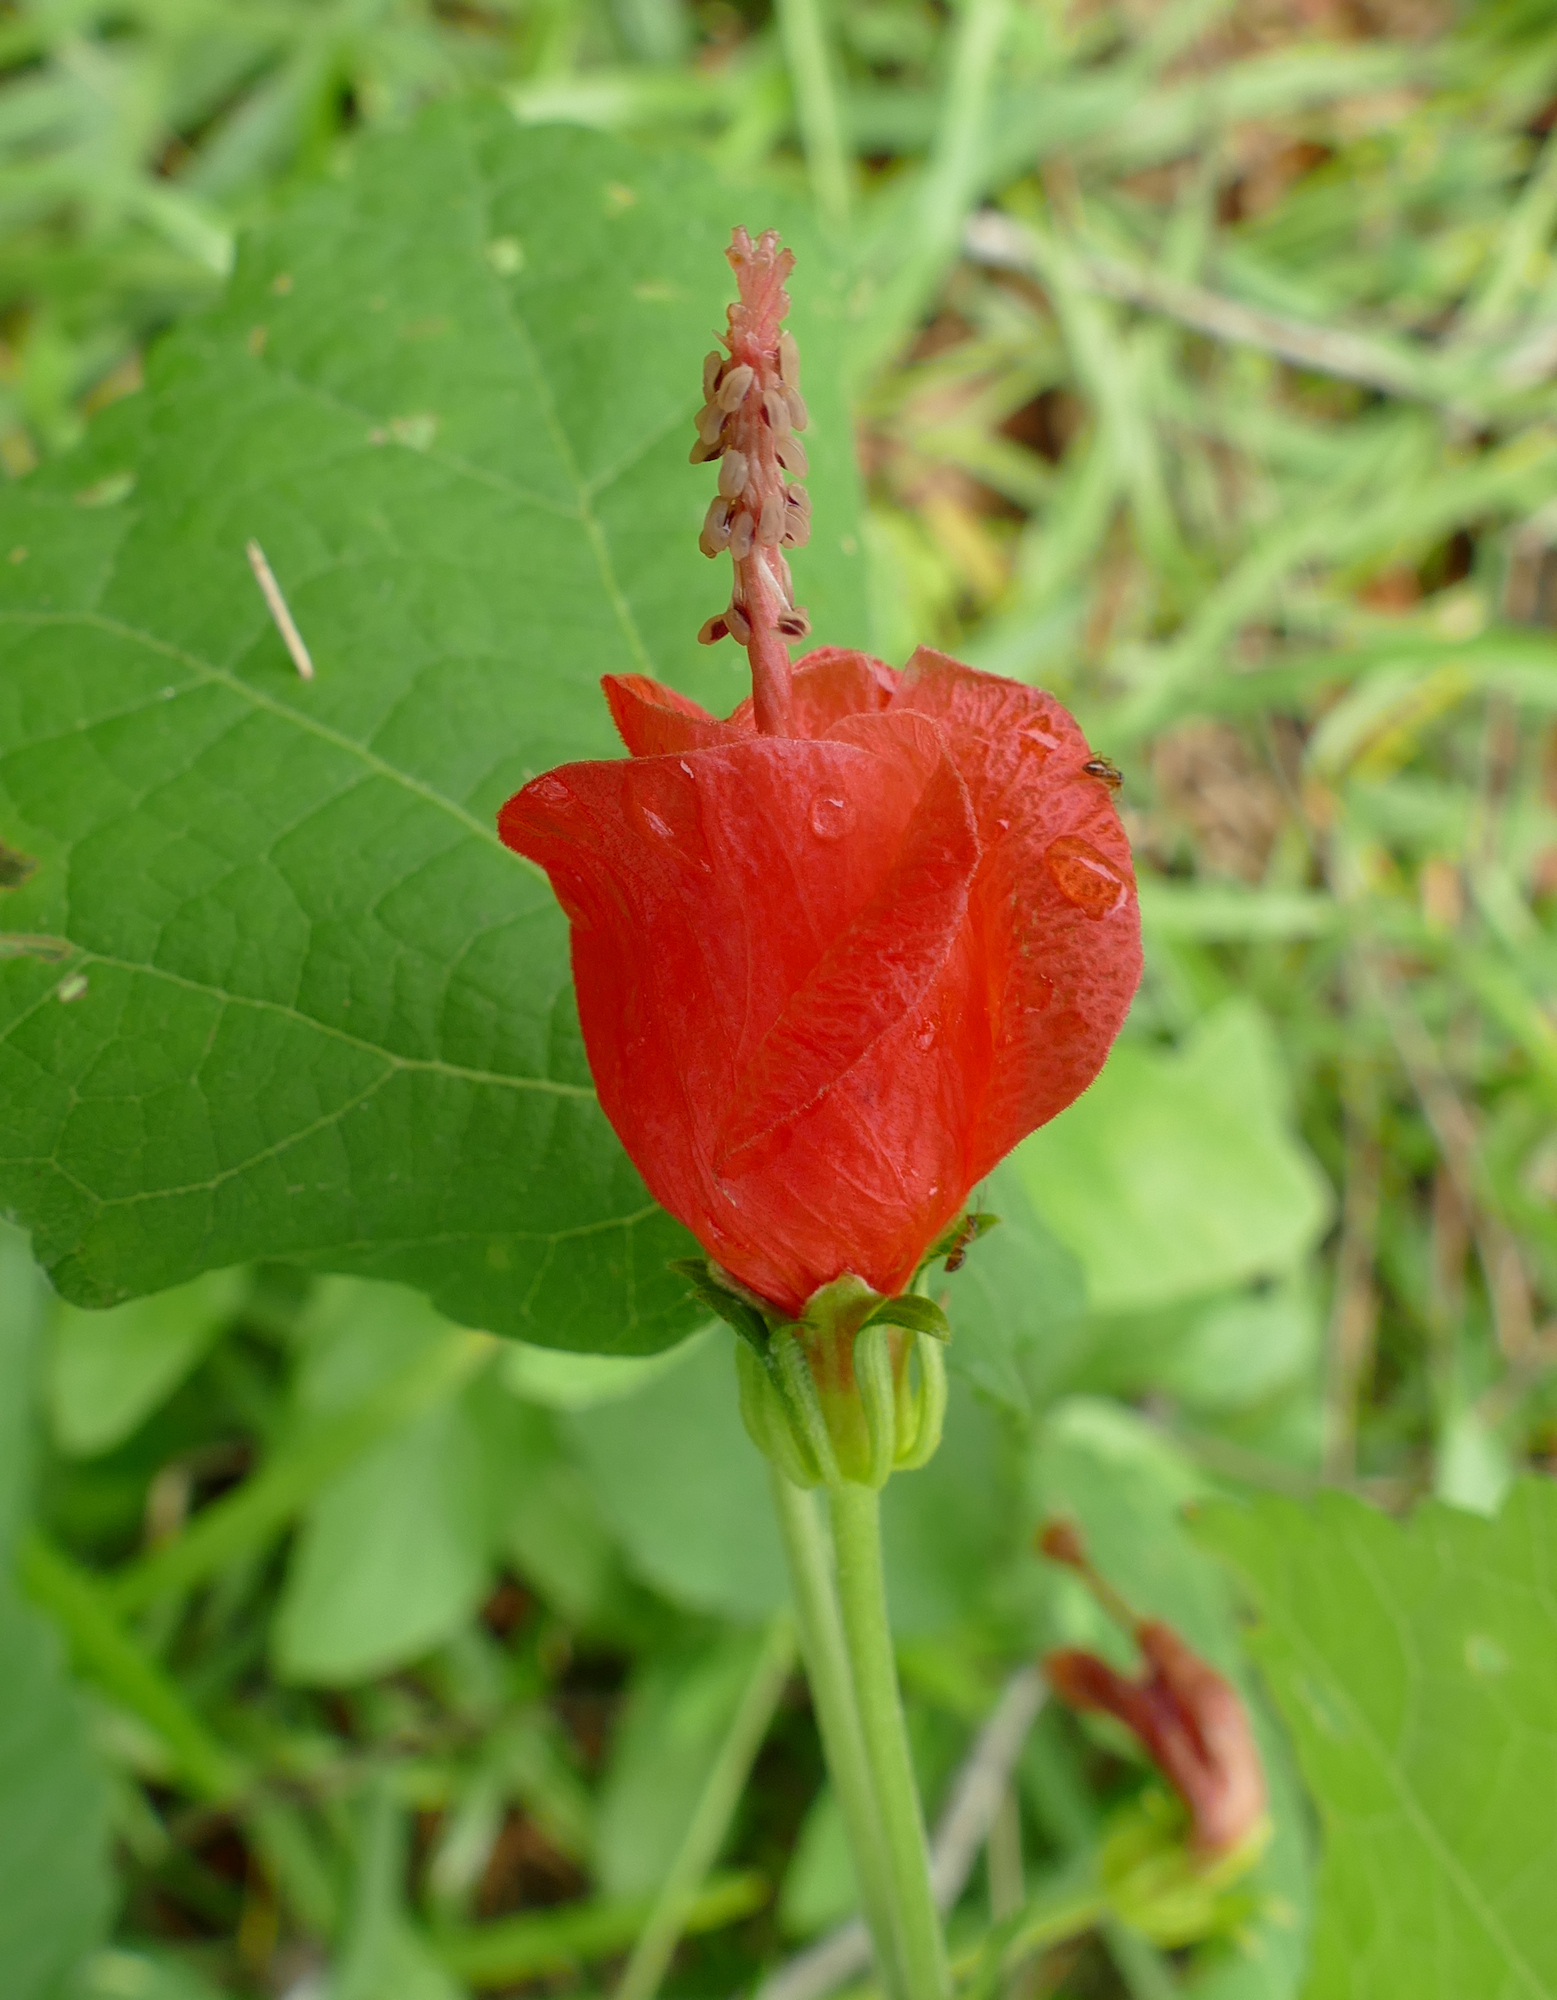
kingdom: Plantae
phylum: Tracheophyta
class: Magnoliopsida
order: Malvales
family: Malvaceae
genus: Malvaviscus
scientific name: Malvaviscus arboreus
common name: Wax mallow
